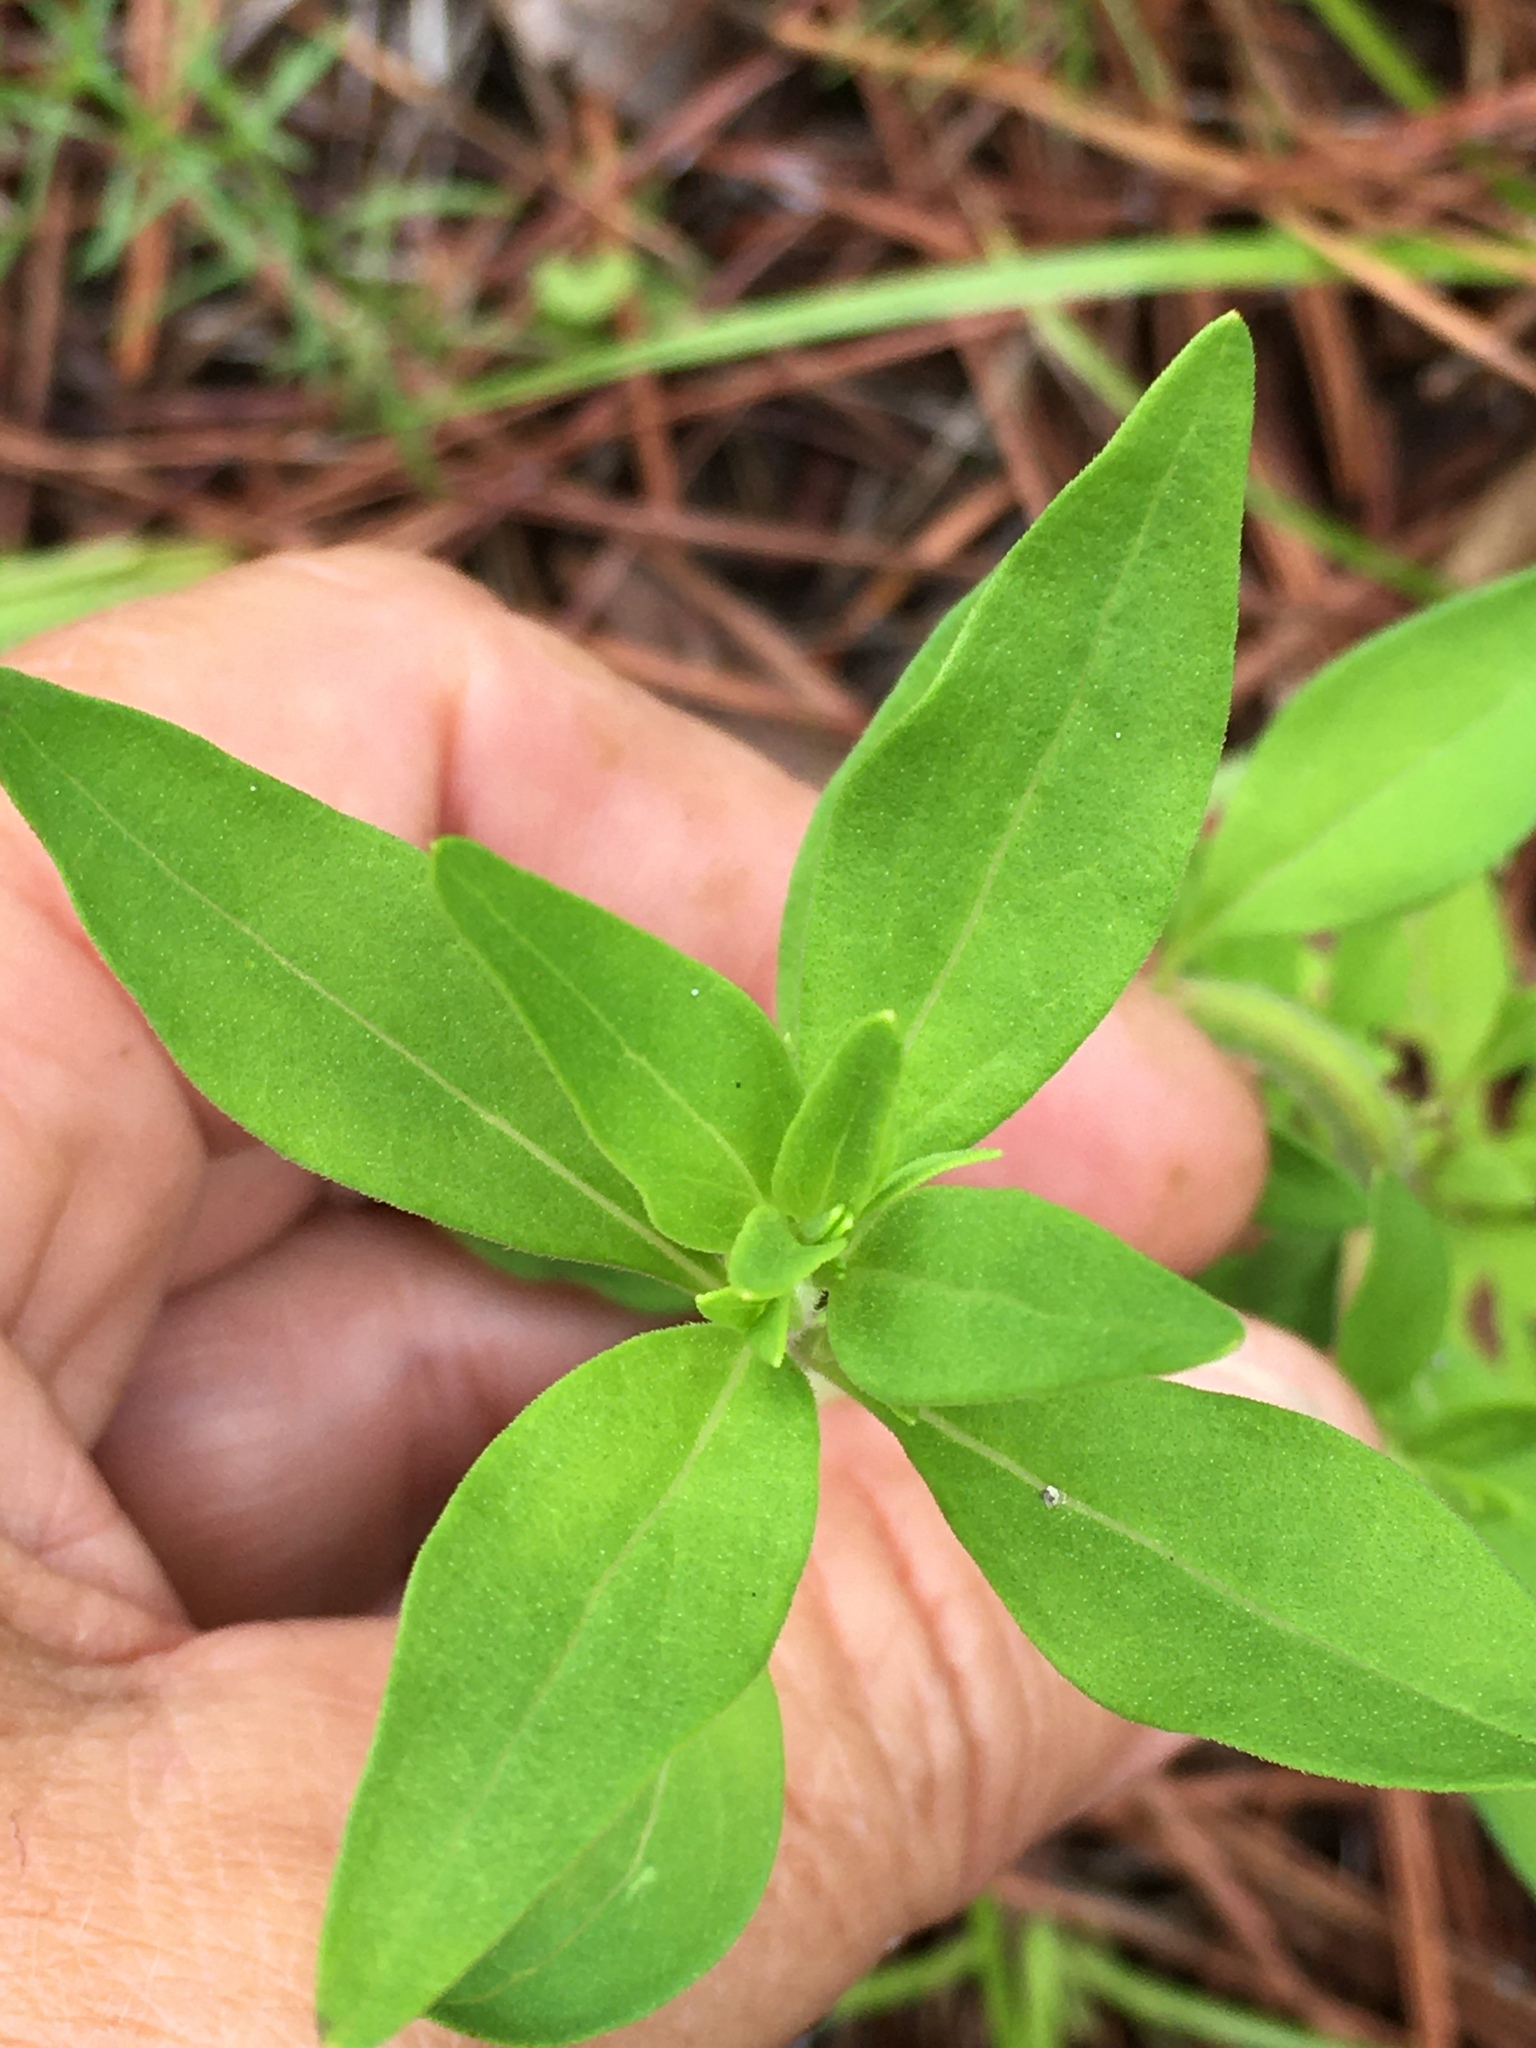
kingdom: Plantae
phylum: Tracheophyta
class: Magnoliopsida
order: Lamiales
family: Lamiaceae
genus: Trichostema
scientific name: Trichostema dichotomum
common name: Bastard pennyroyal
